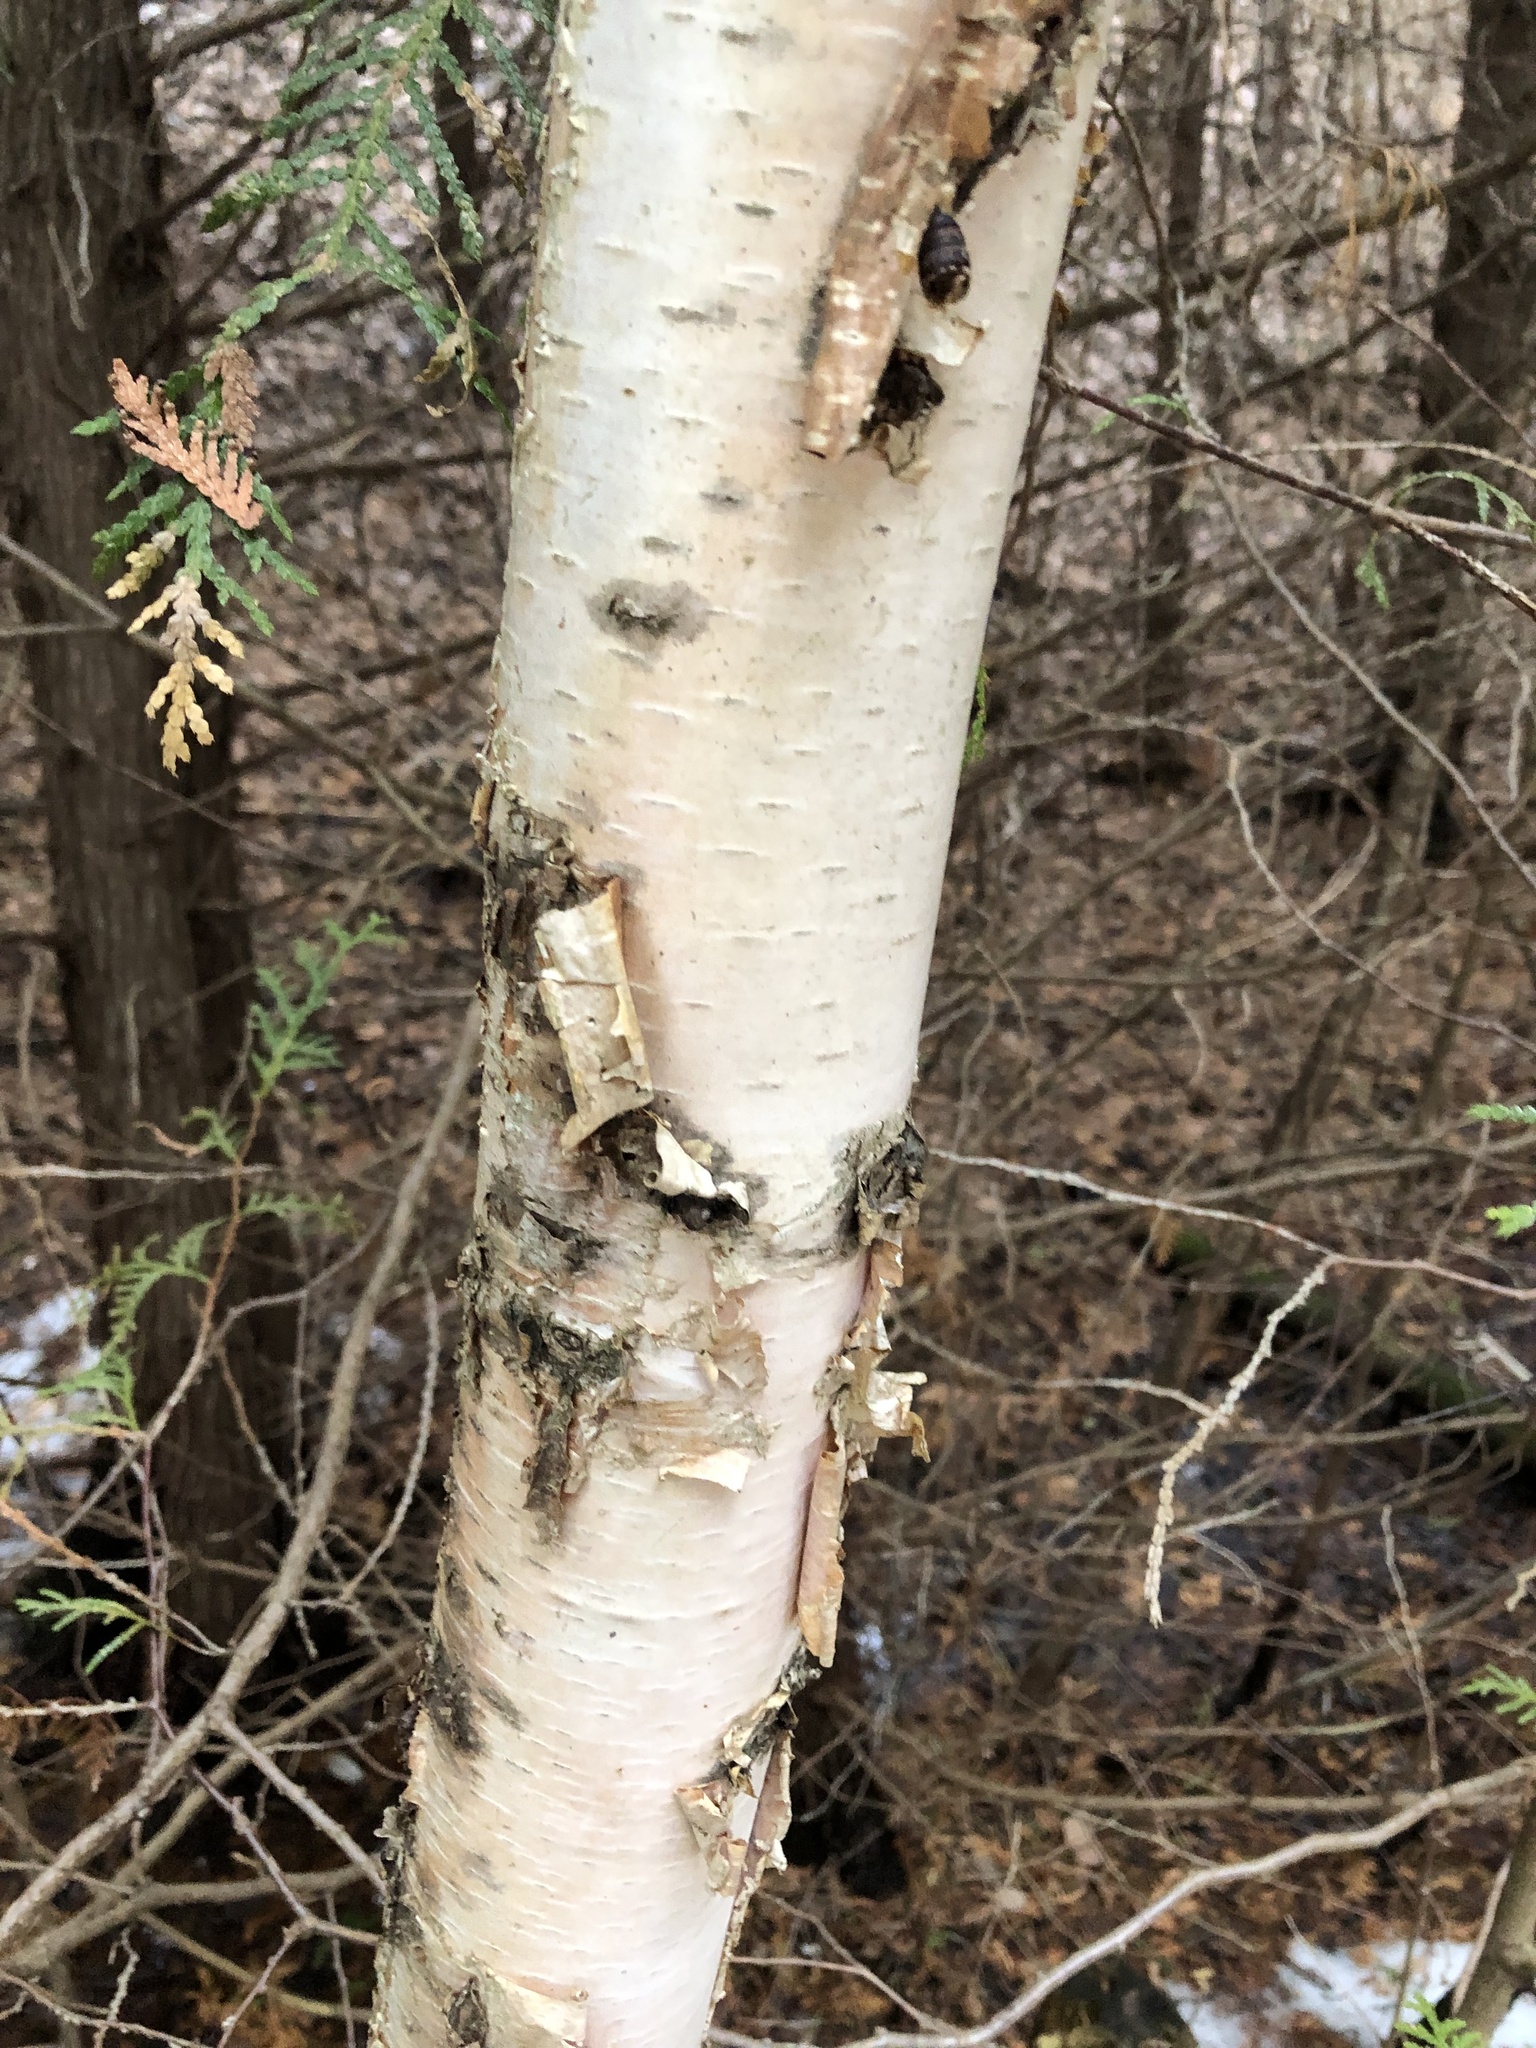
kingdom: Plantae
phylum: Tracheophyta
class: Magnoliopsida
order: Fagales
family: Betulaceae
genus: Betula
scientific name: Betula papyrifera
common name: Paper birch
